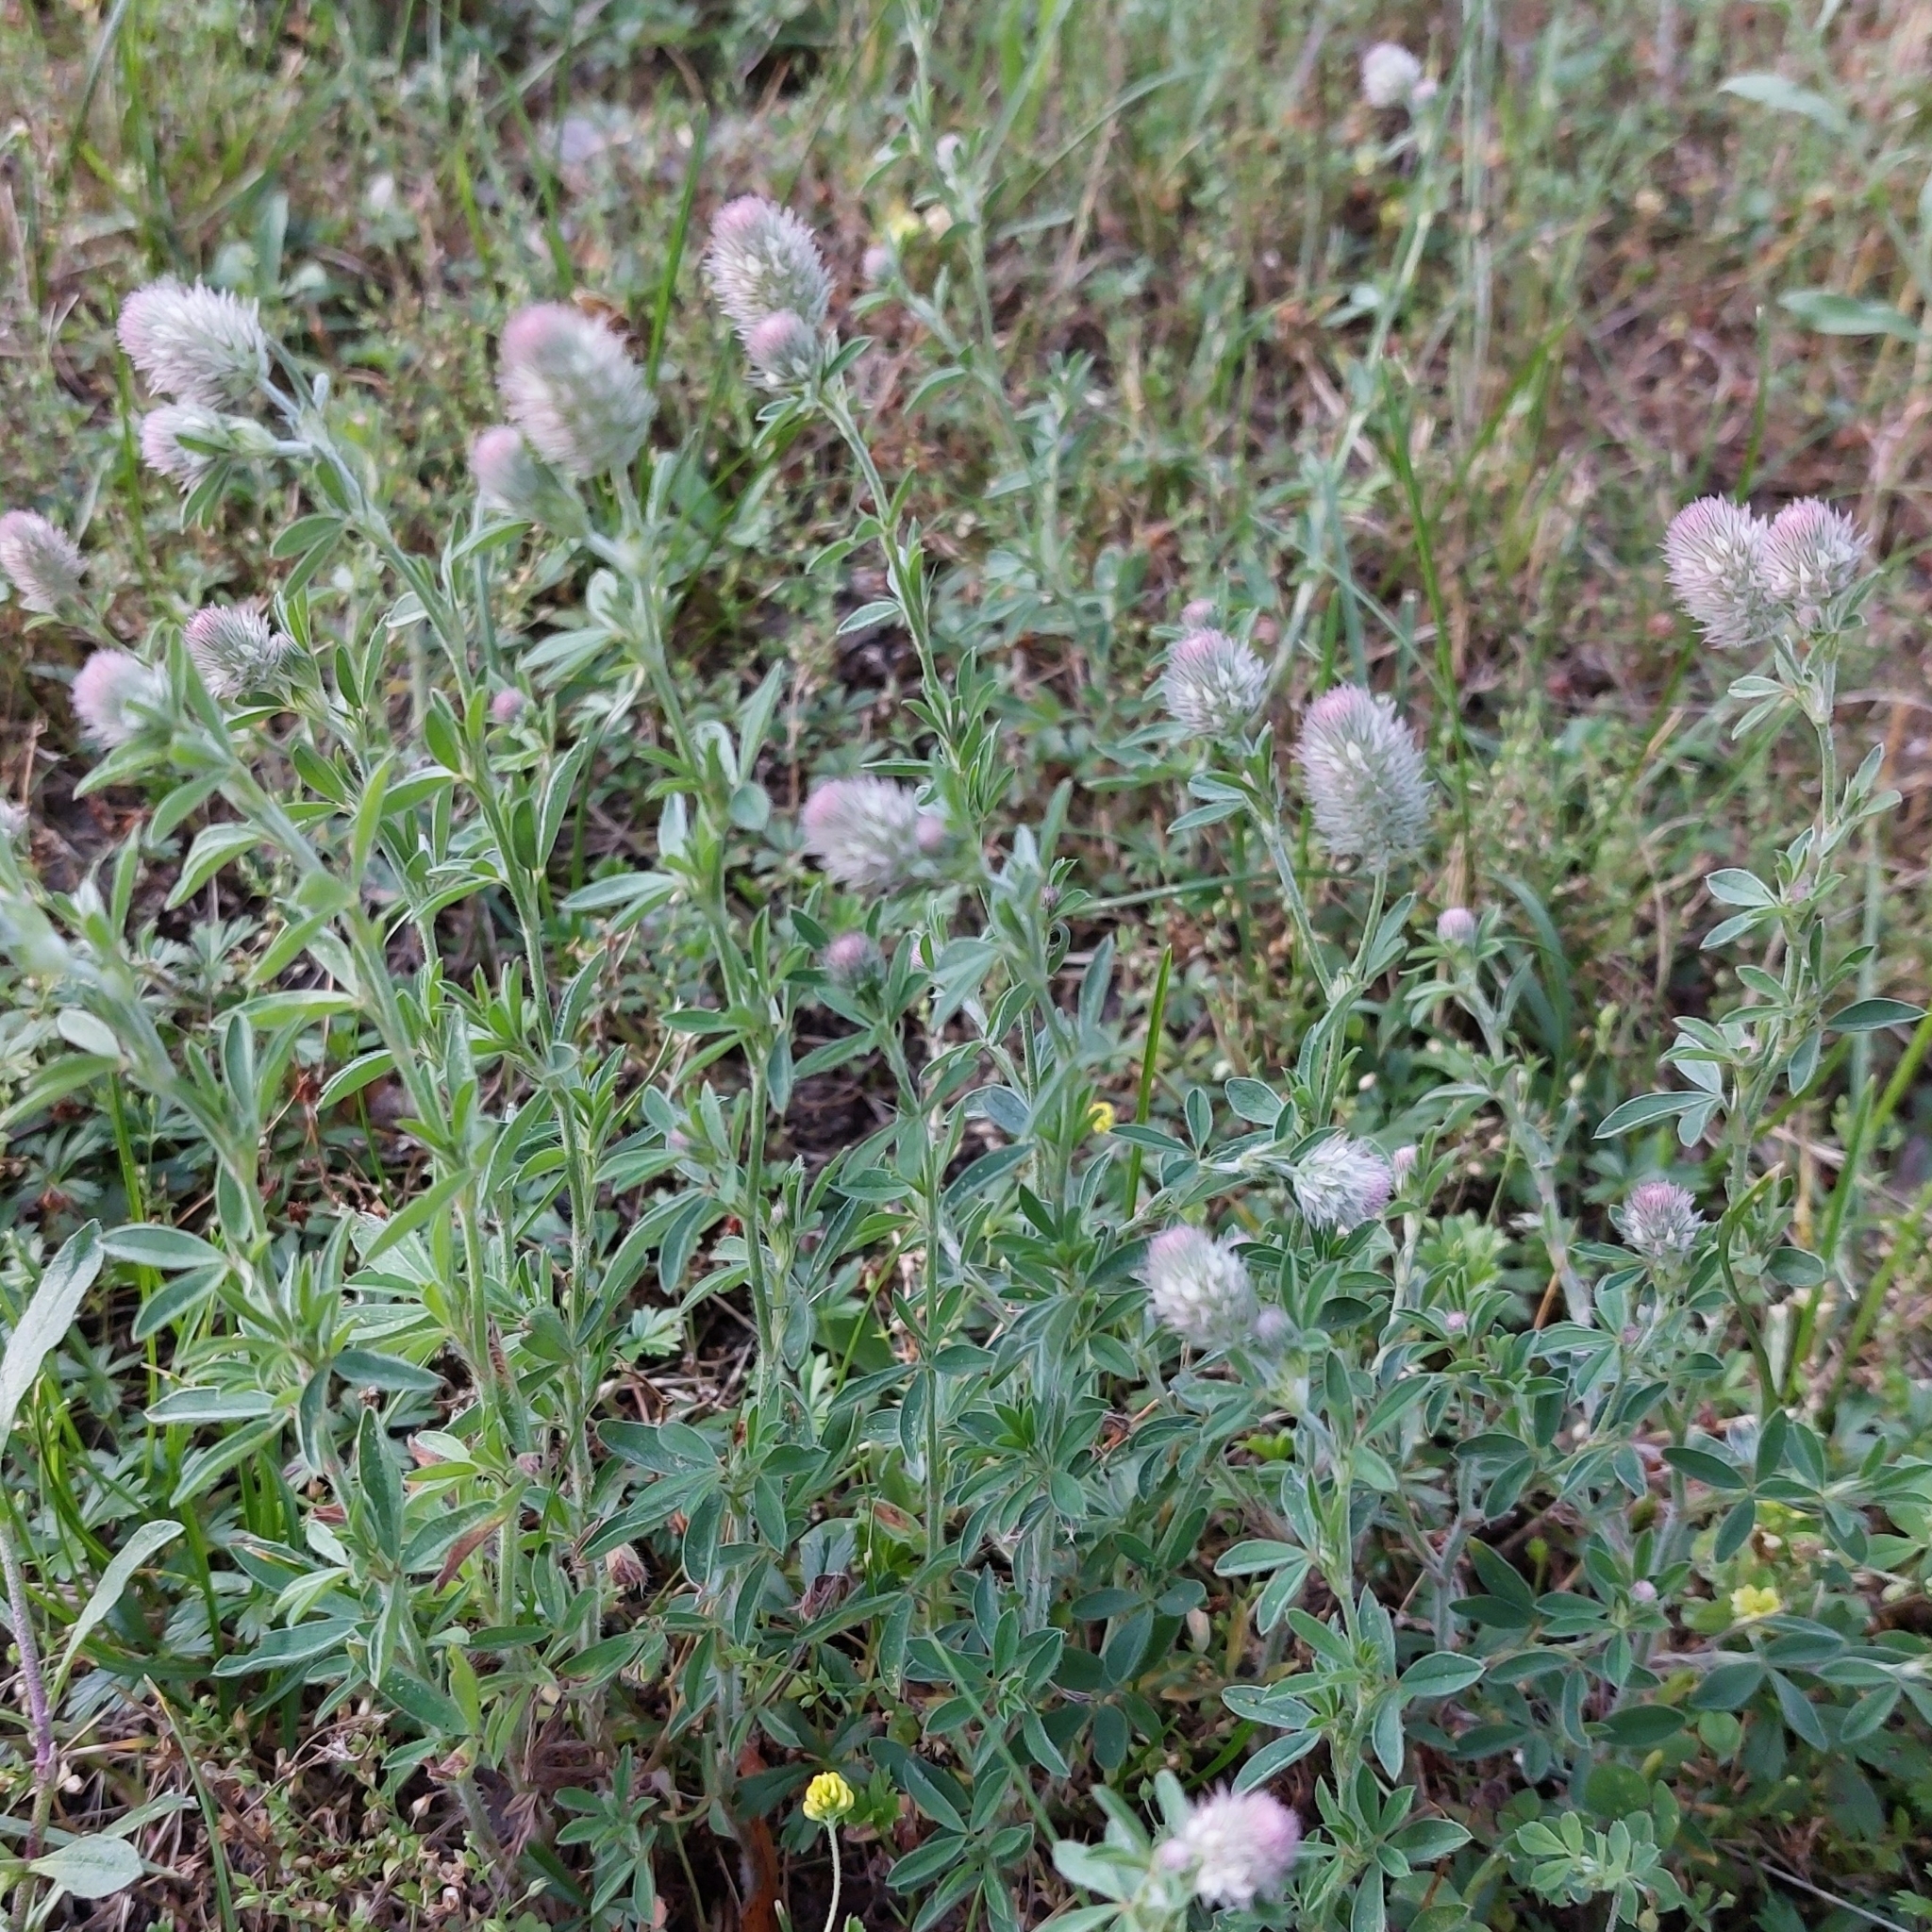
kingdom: Plantae
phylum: Tracheophyta
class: Magnoliopsida
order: Fabales
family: Fabaceae
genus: Trifolium
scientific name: Trifolium arvense
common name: Hare's-foot clover
